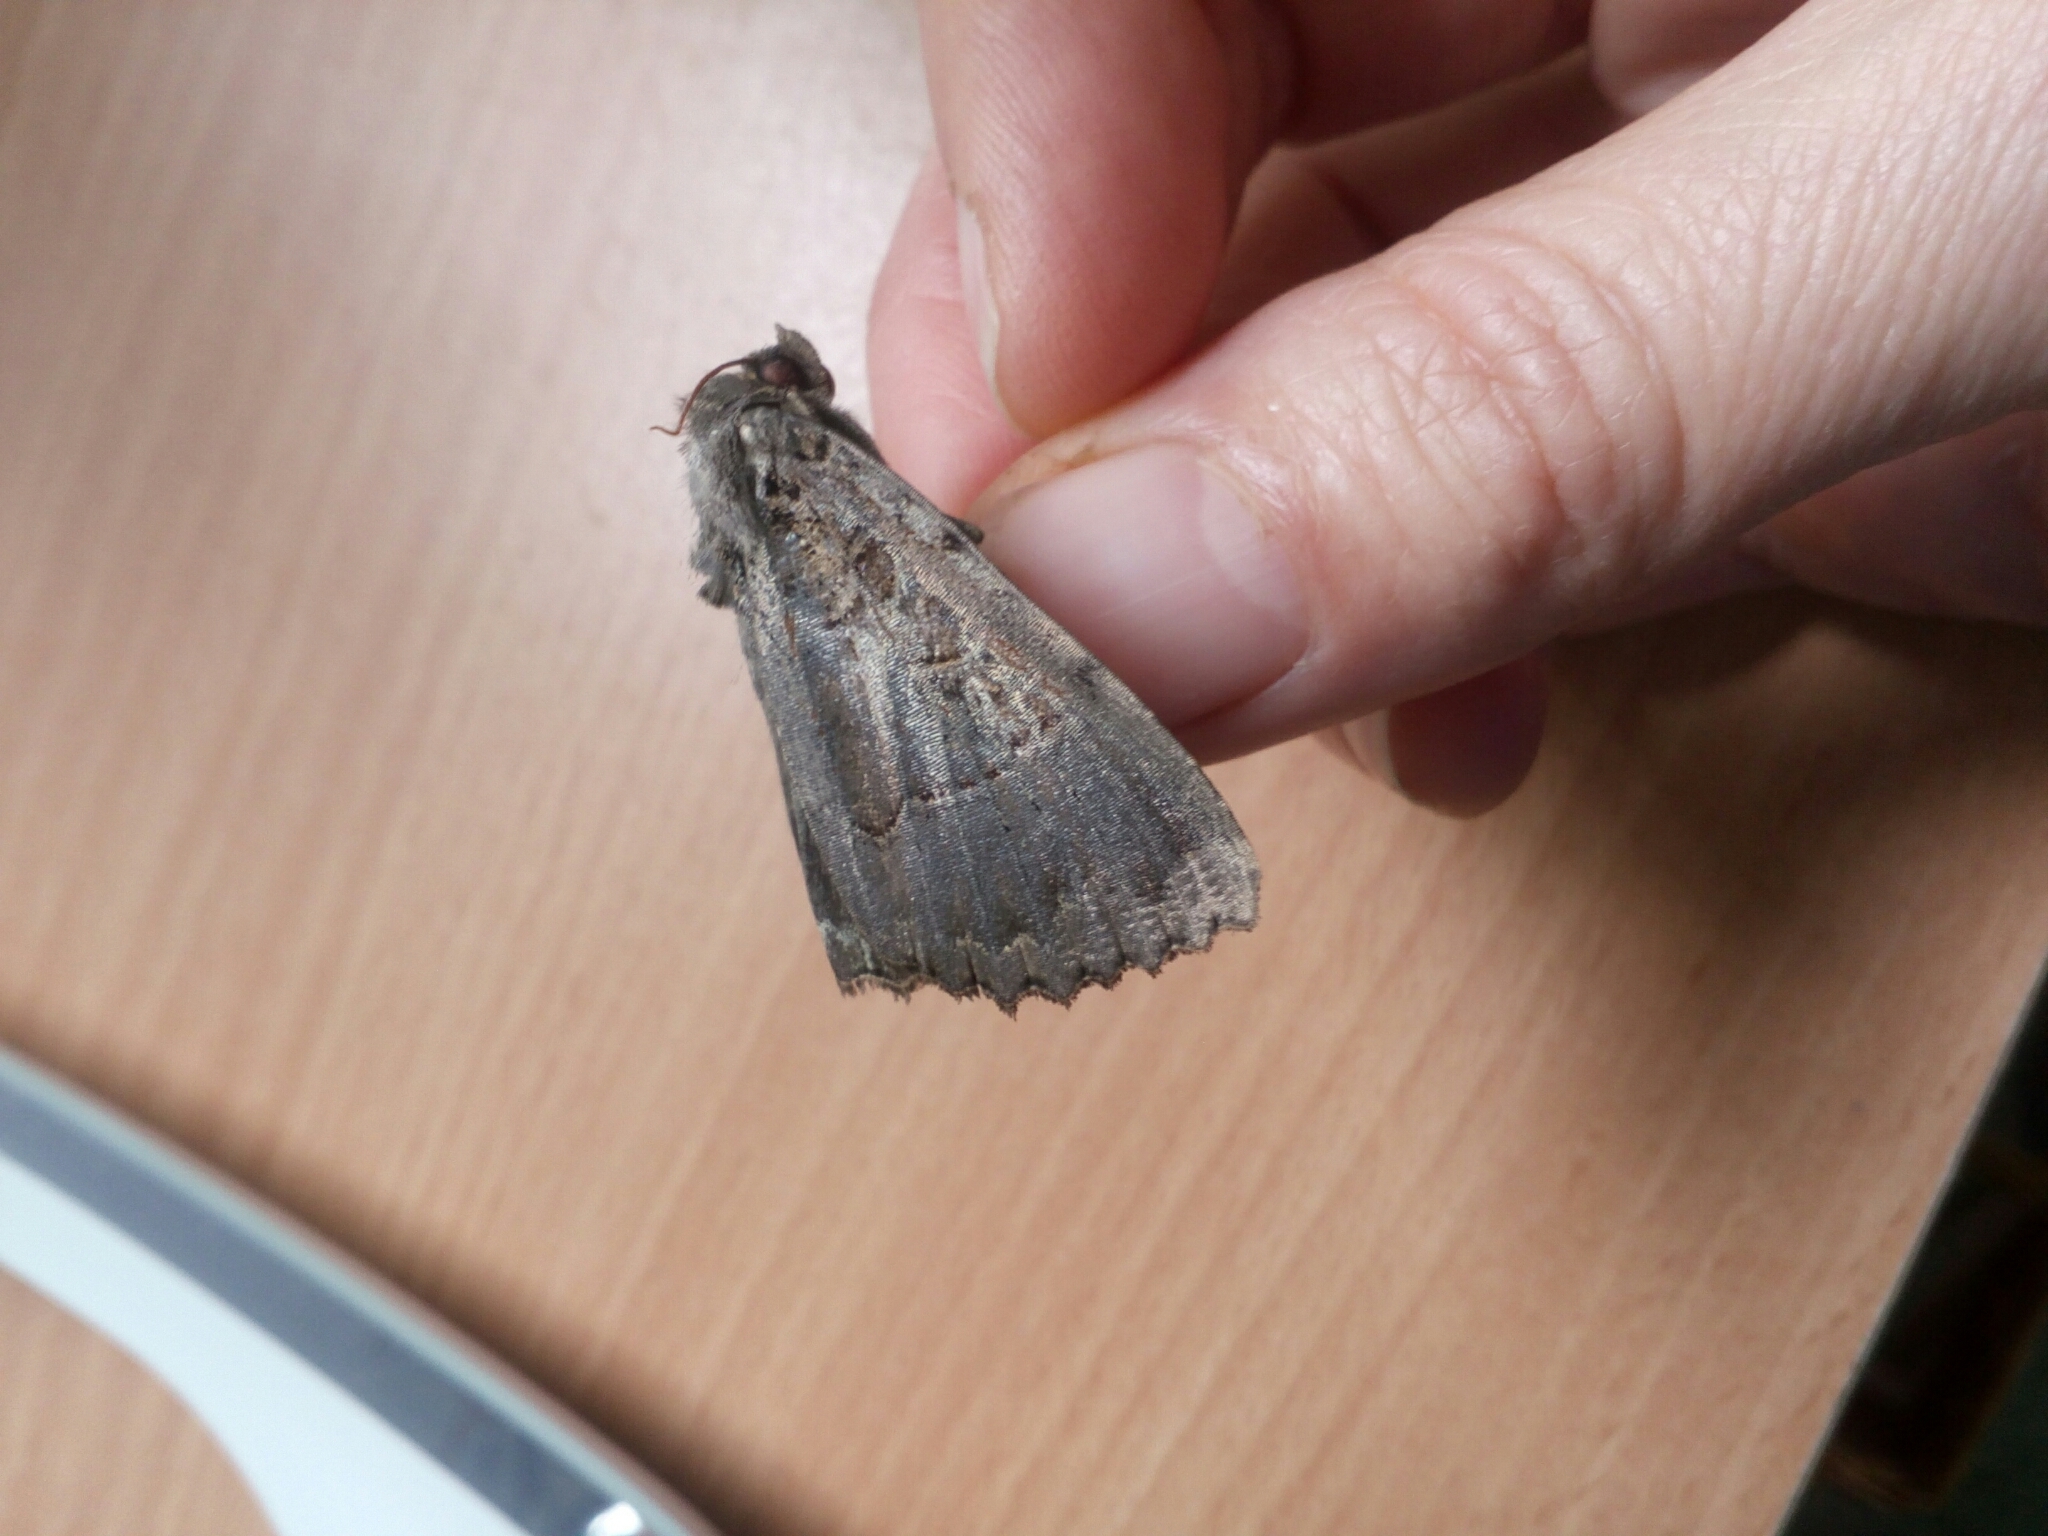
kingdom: Animalia
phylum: Arthropoda
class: Insecta
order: Lepidoptera
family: Noctuidae
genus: Mormo
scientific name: Mormo maura
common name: Old lady
